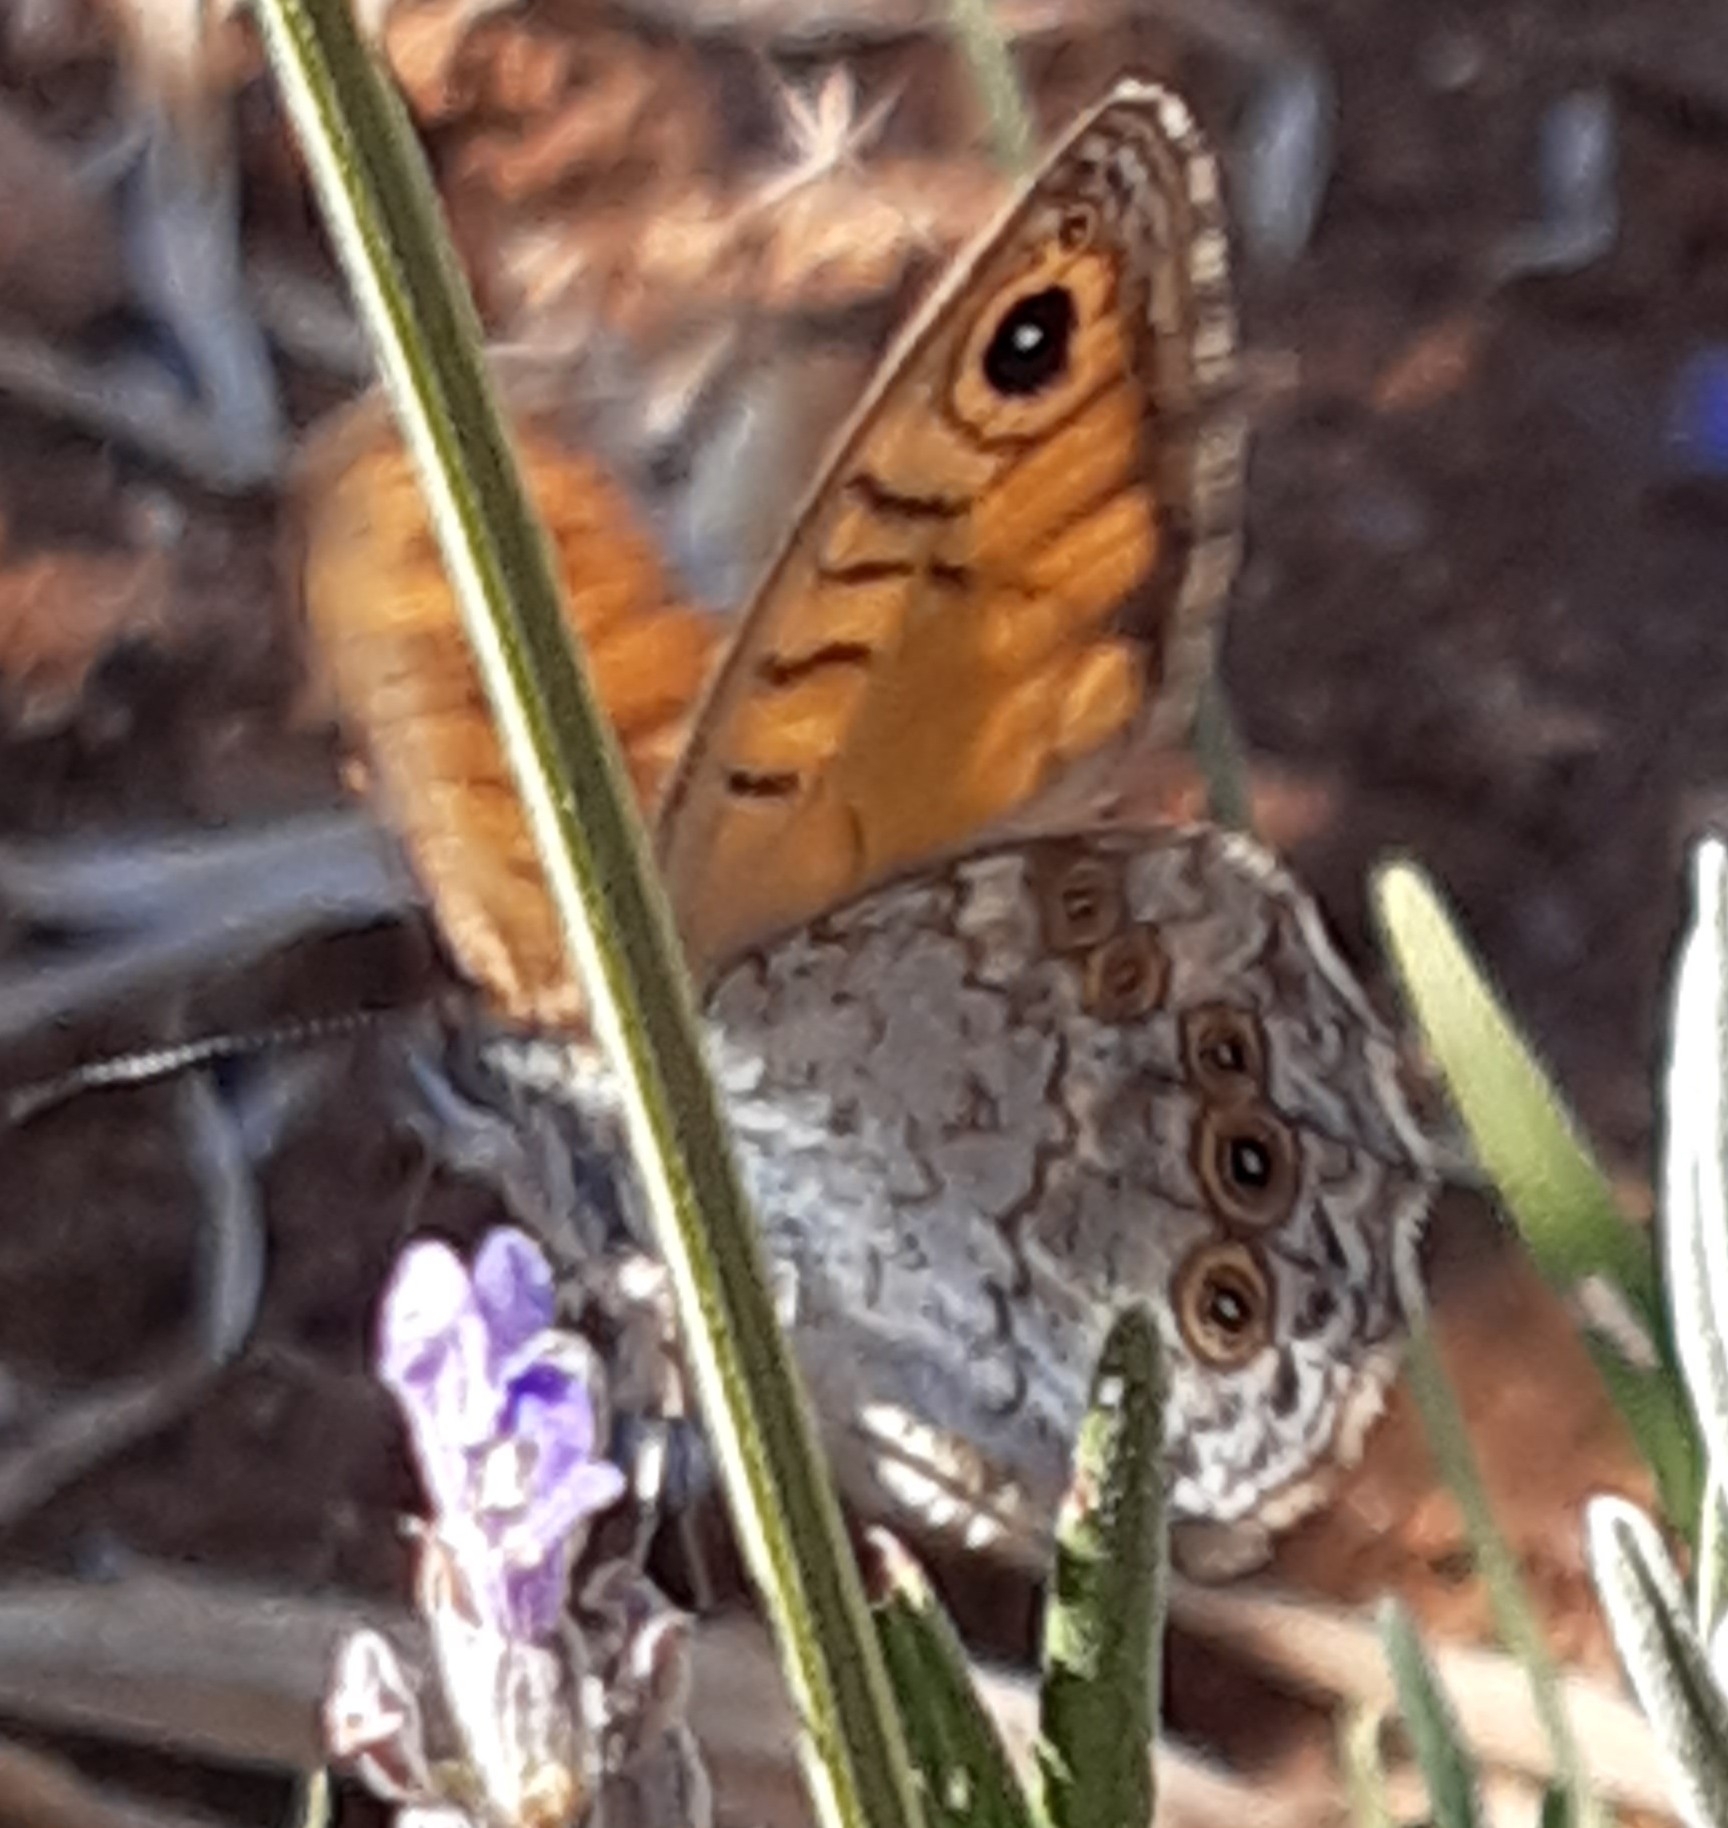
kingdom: Animalia
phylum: Arthropoda
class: Insecta
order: Lepidoptera
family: Nymphalidae
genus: Pararge
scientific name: Pararge Lasiommata megera
